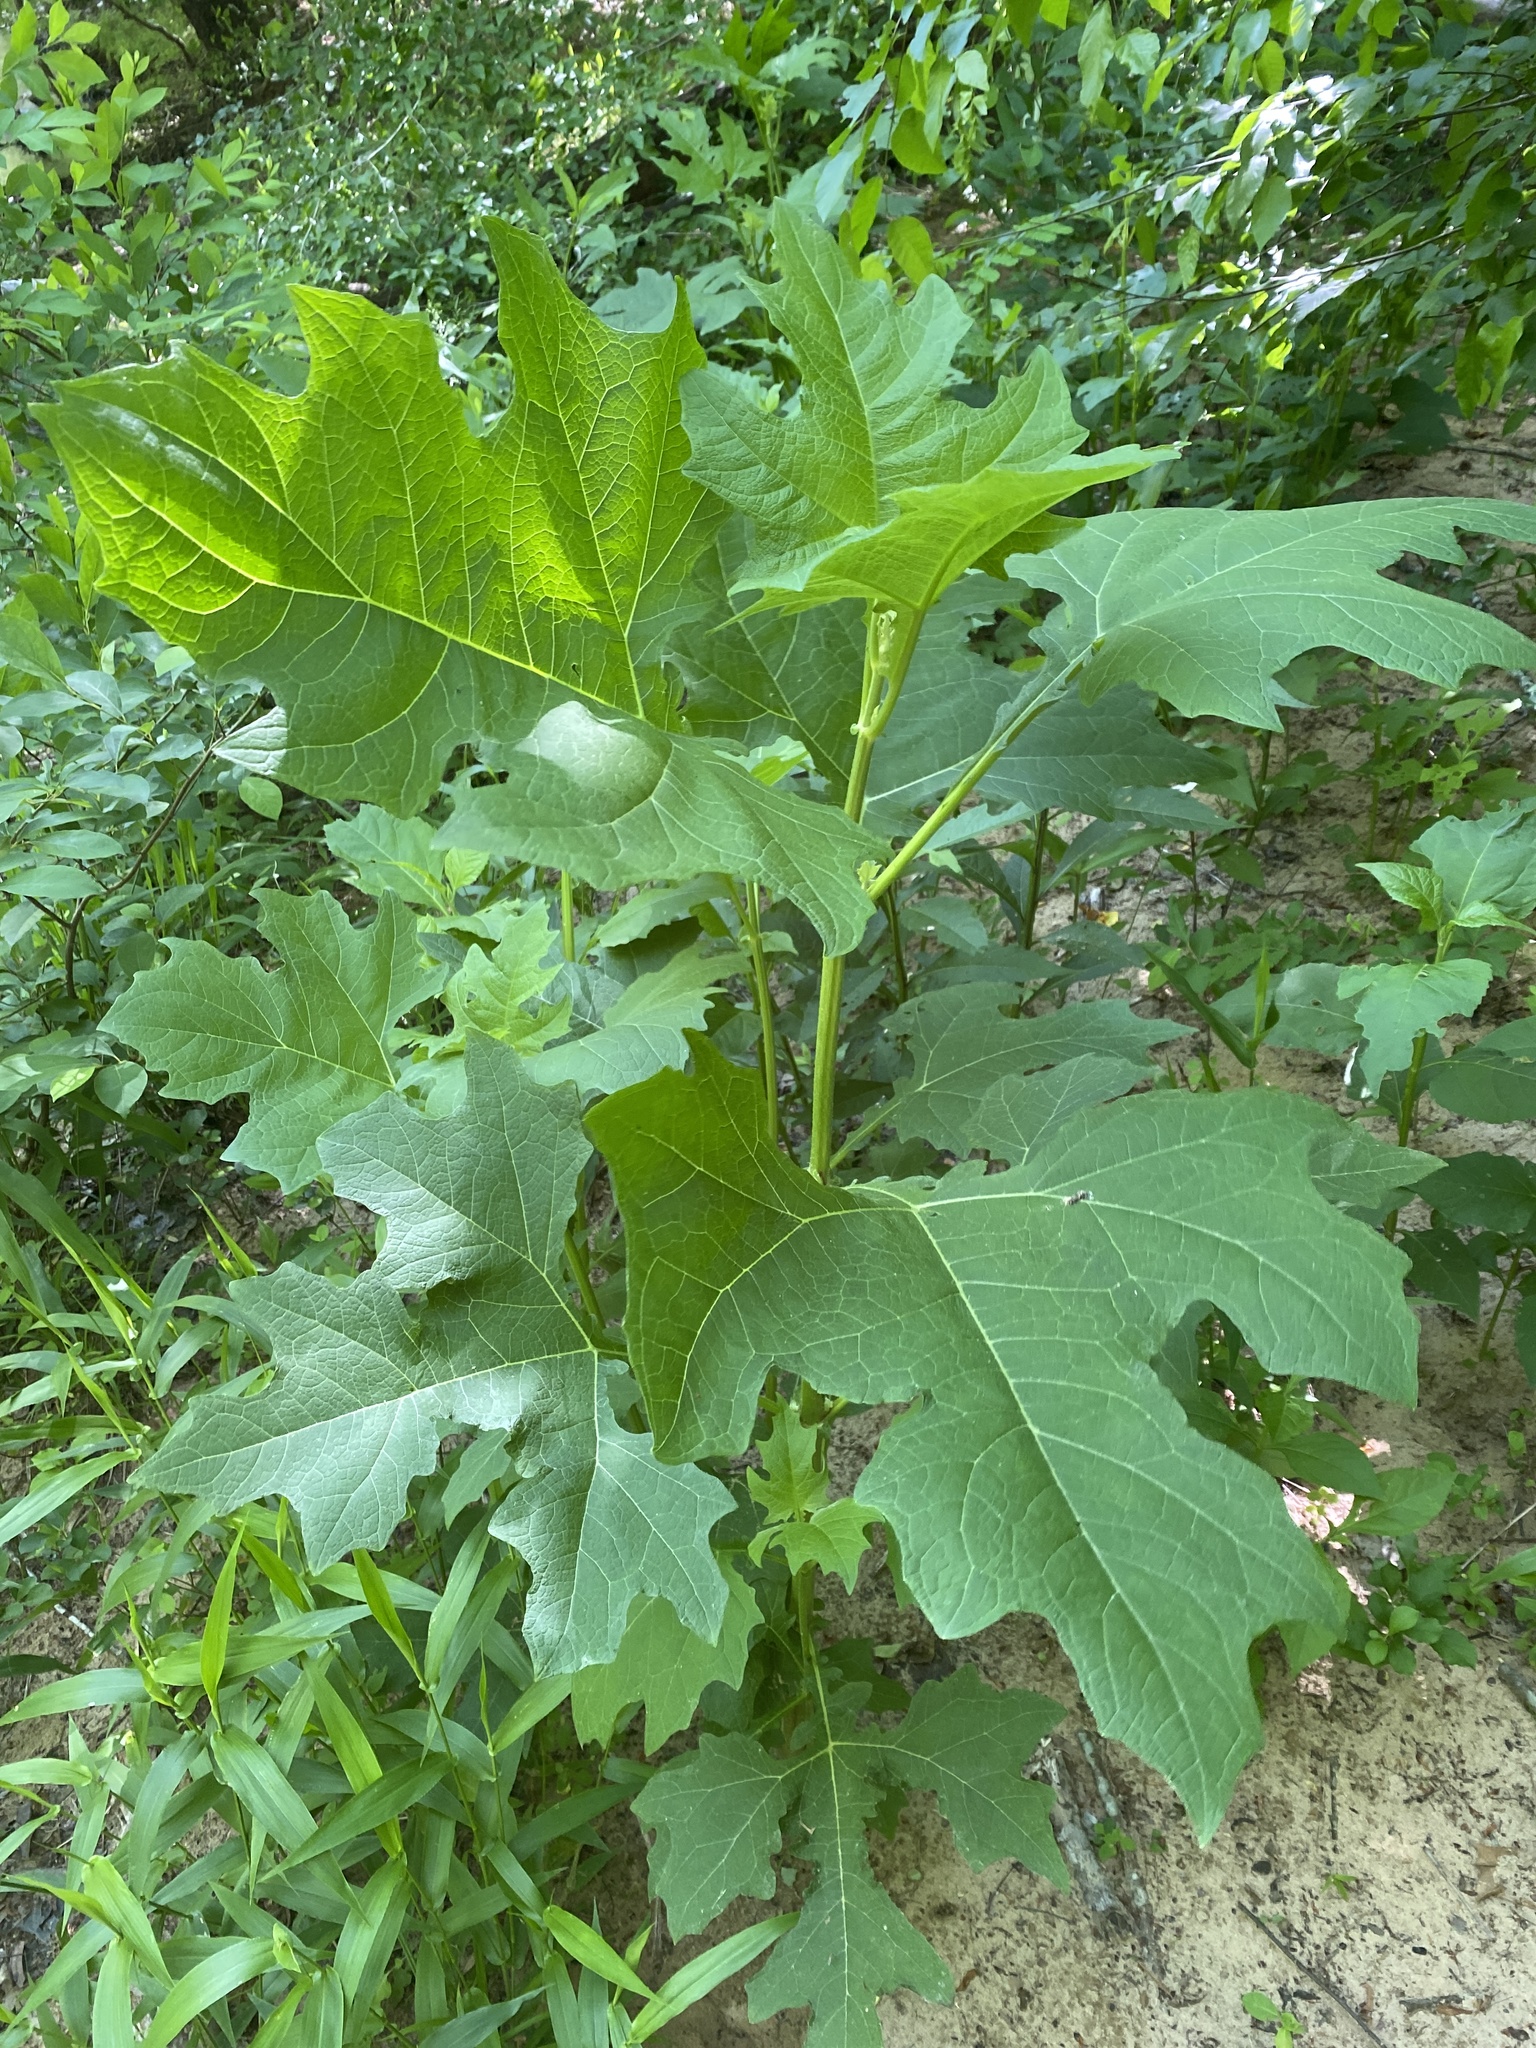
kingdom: Plantae
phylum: Tracheophyta
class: Magnoliopsida
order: Asterales
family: Asteraceae
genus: Smallanthus
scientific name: Smallanthus uvedalia
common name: Bear's-foot
